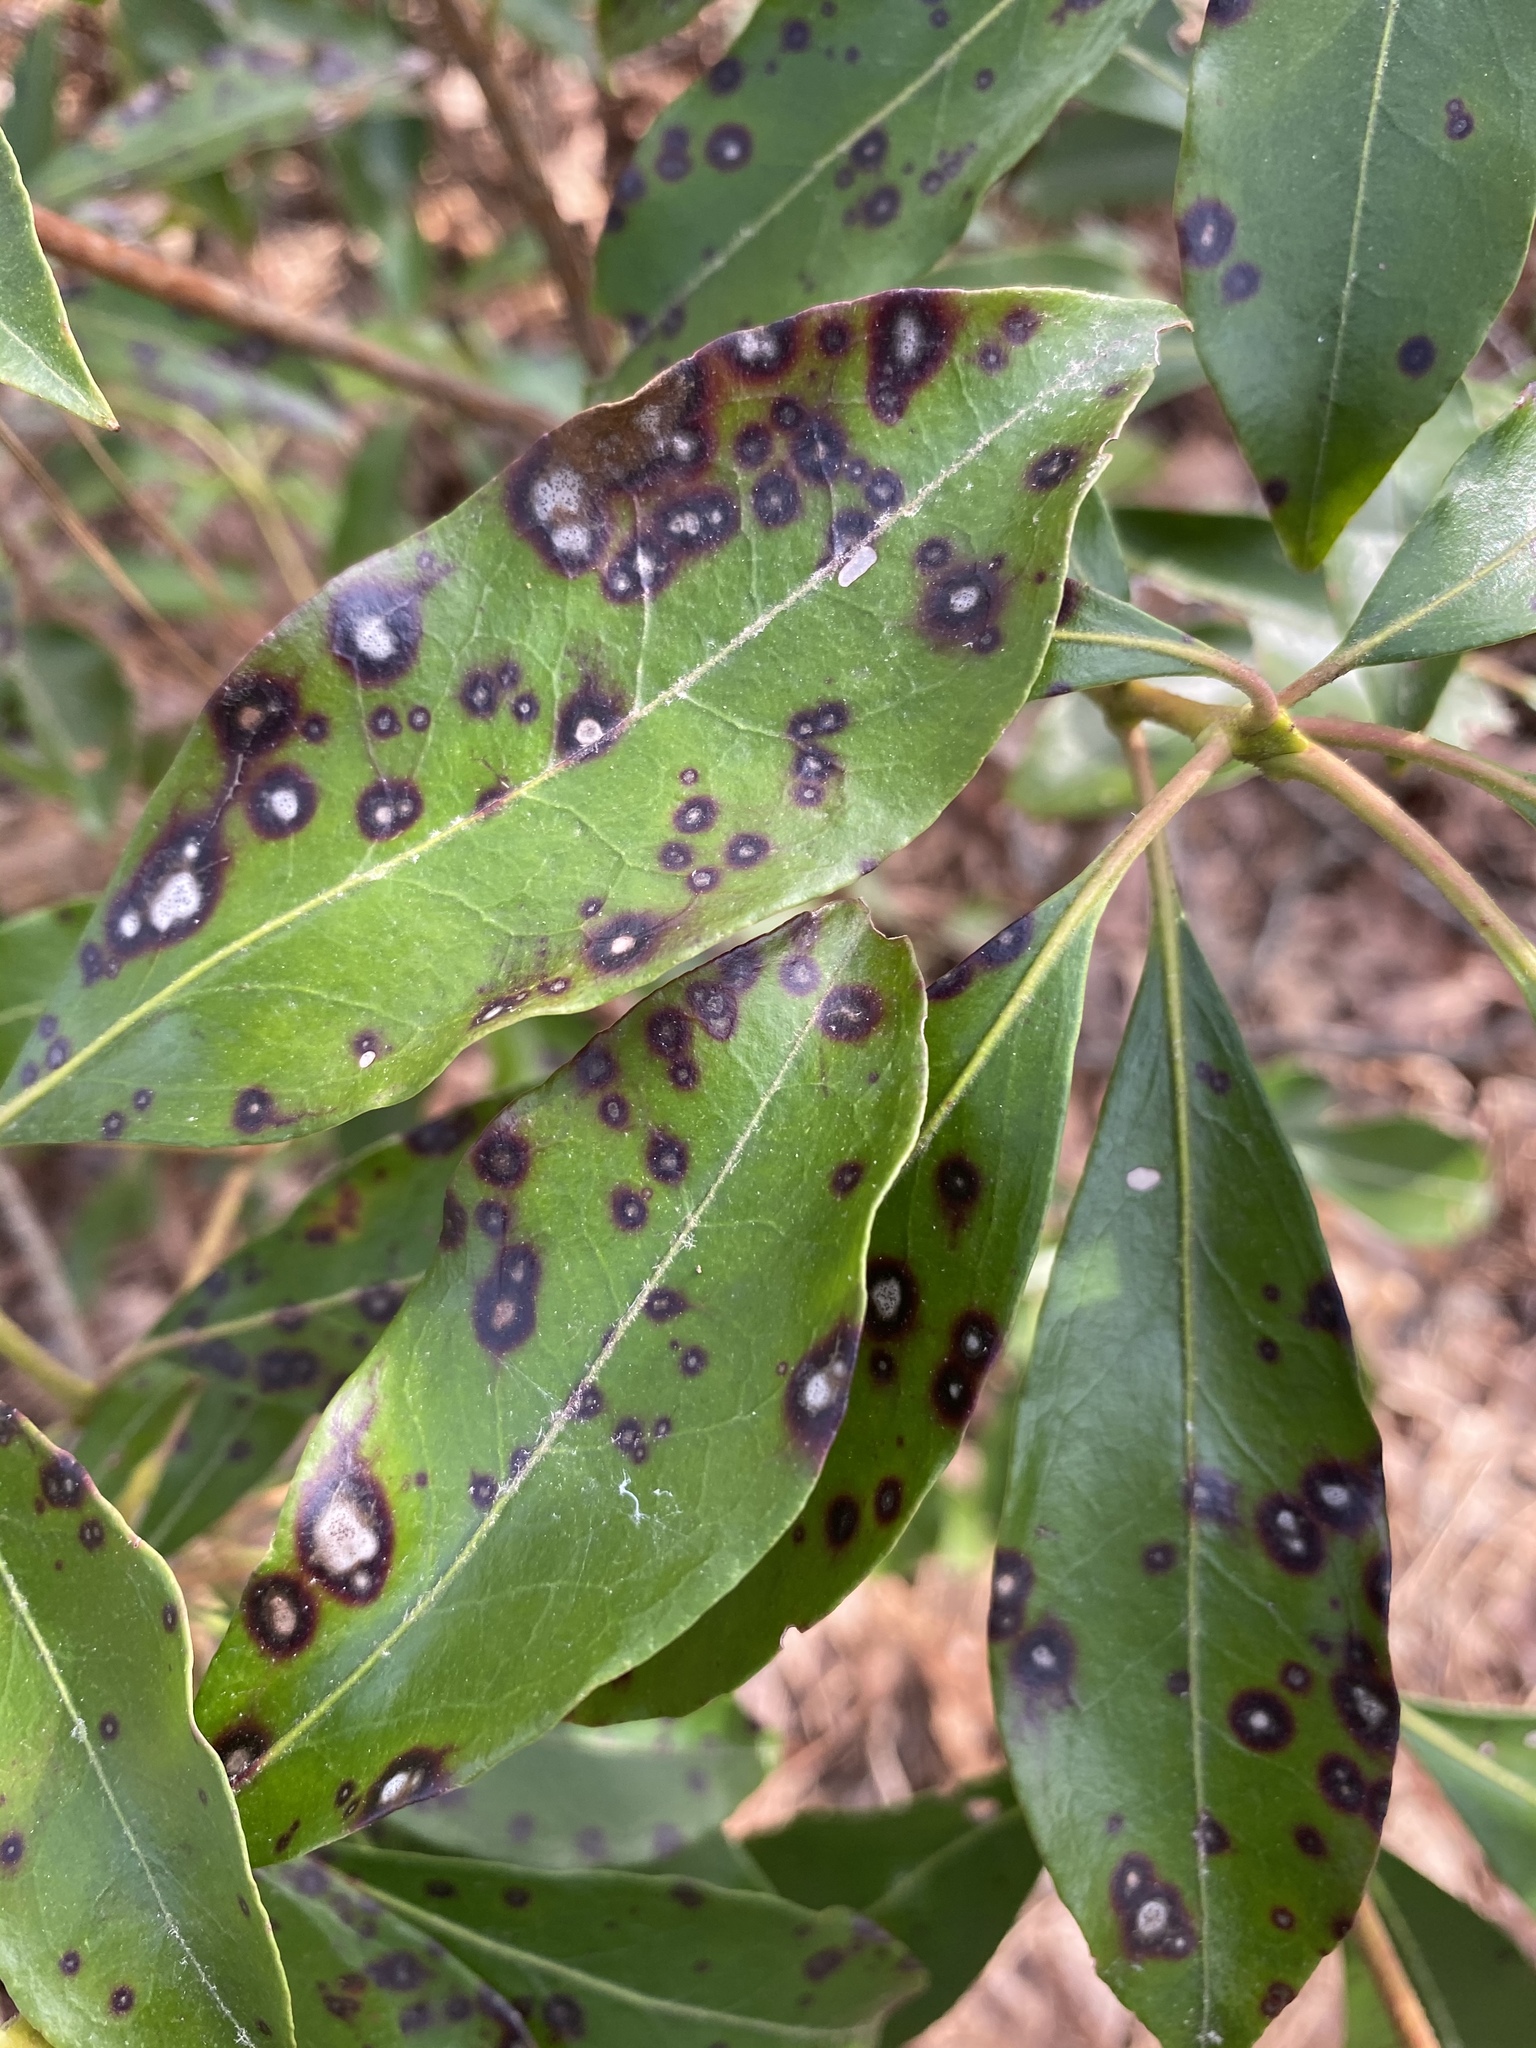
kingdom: Fungi
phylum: Ascomycota
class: Dothideomycetes
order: Mycosphaerellales
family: Mycosphaerellaceae
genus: Mycosphaerella
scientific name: Mycosphaerella colorata
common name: Mountain laurel leaf spot
